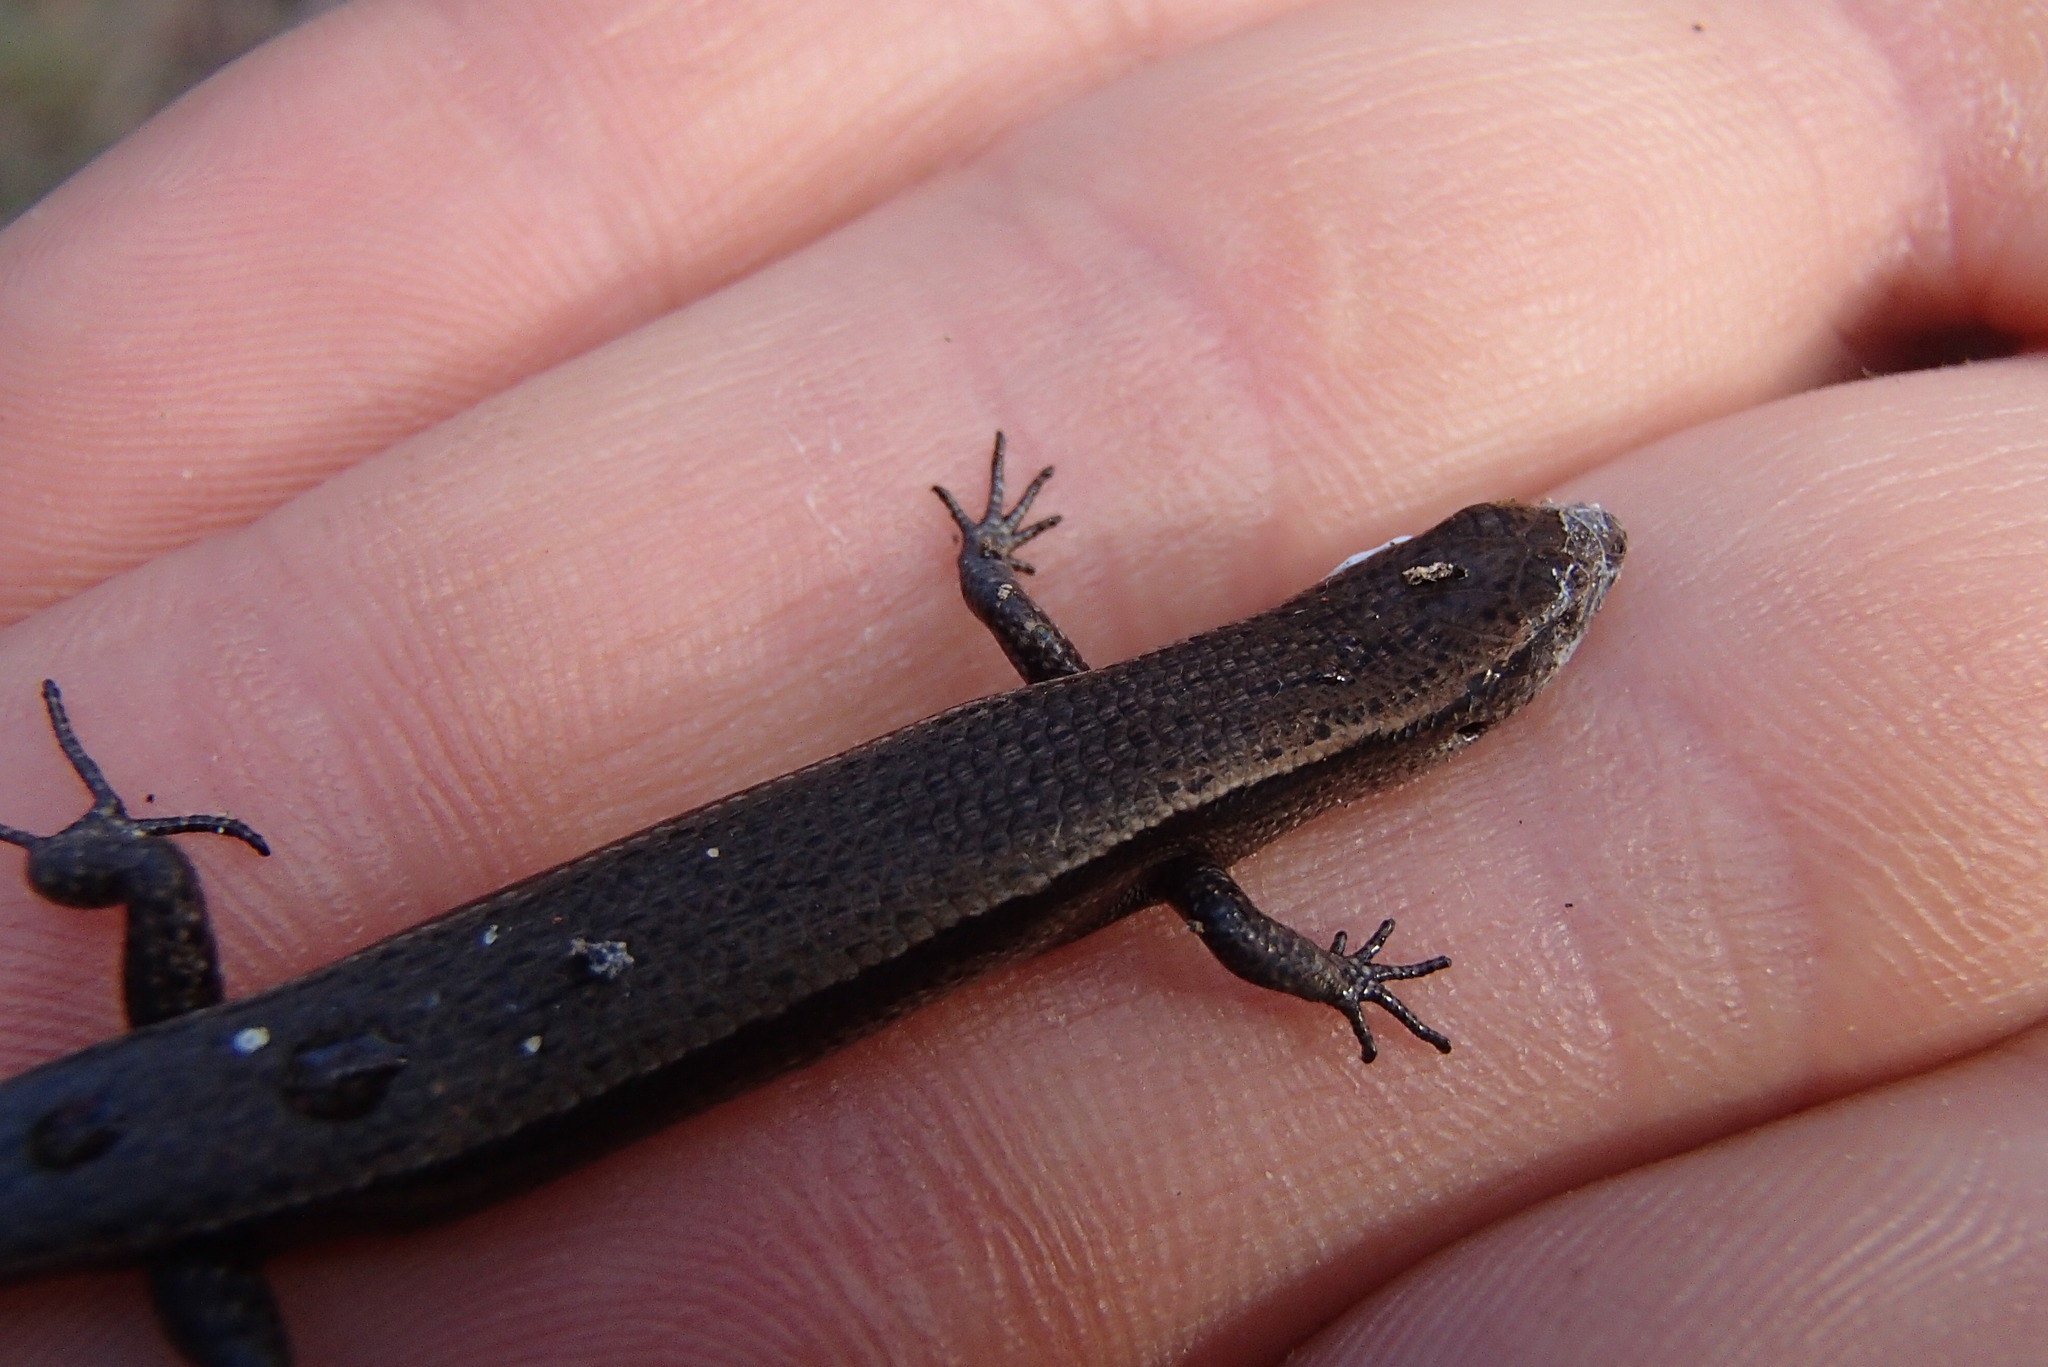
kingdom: Animalia
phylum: Chordata
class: Squamata
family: Scincidae
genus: Lampropholis
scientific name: Lampropholis delicata
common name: Plague skink
